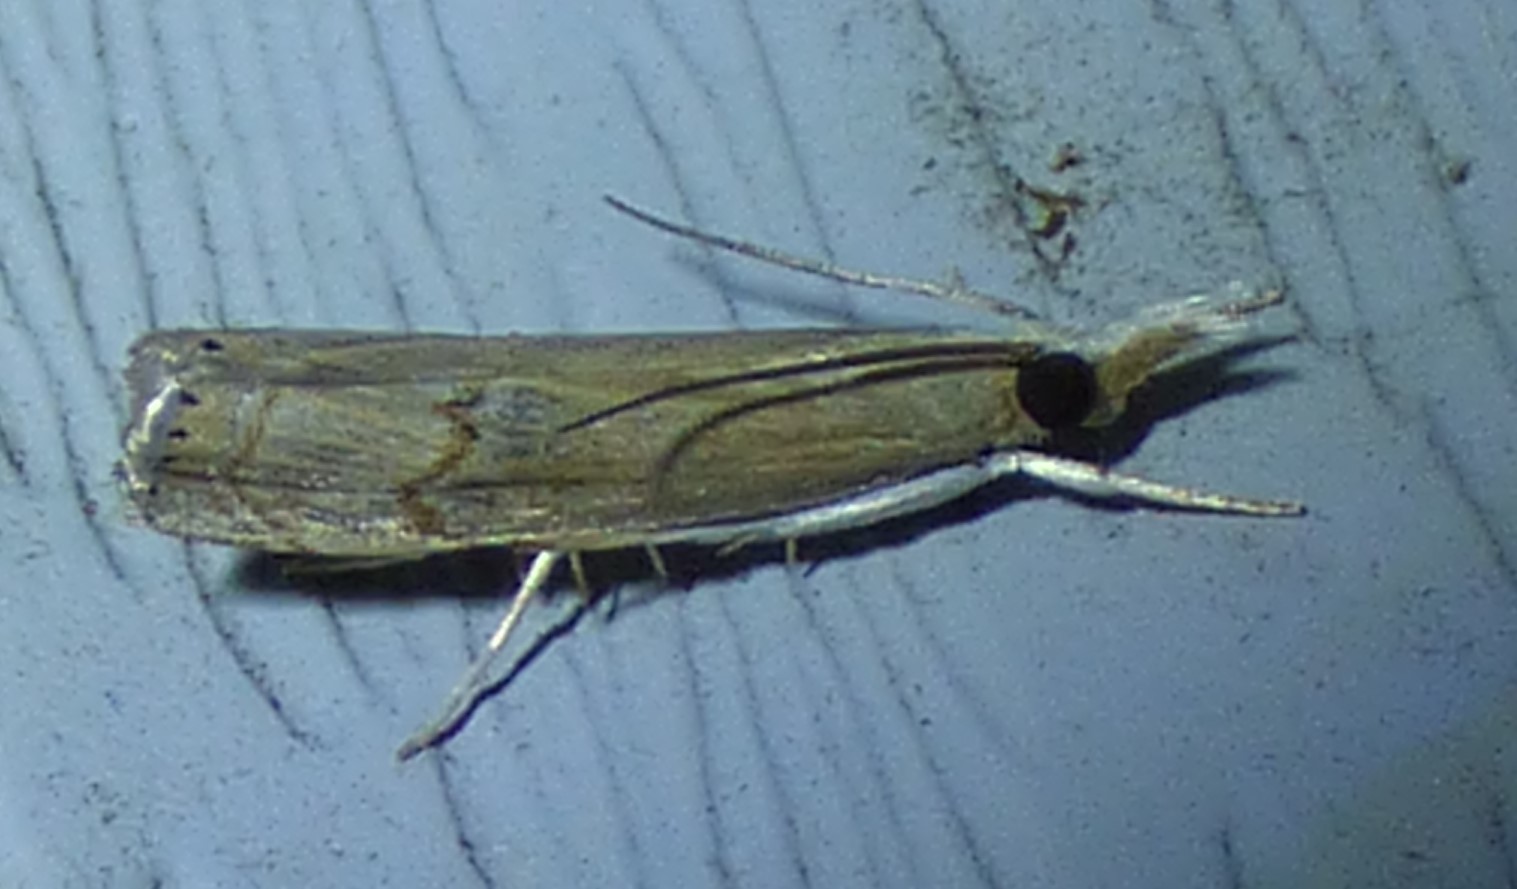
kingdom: Animalia
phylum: Arthropoda
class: Insecta
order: Lepidoptera
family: Crambidae
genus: Parapediasia
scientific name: Parapediasia teterellus
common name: Bluegrass webworm moth
